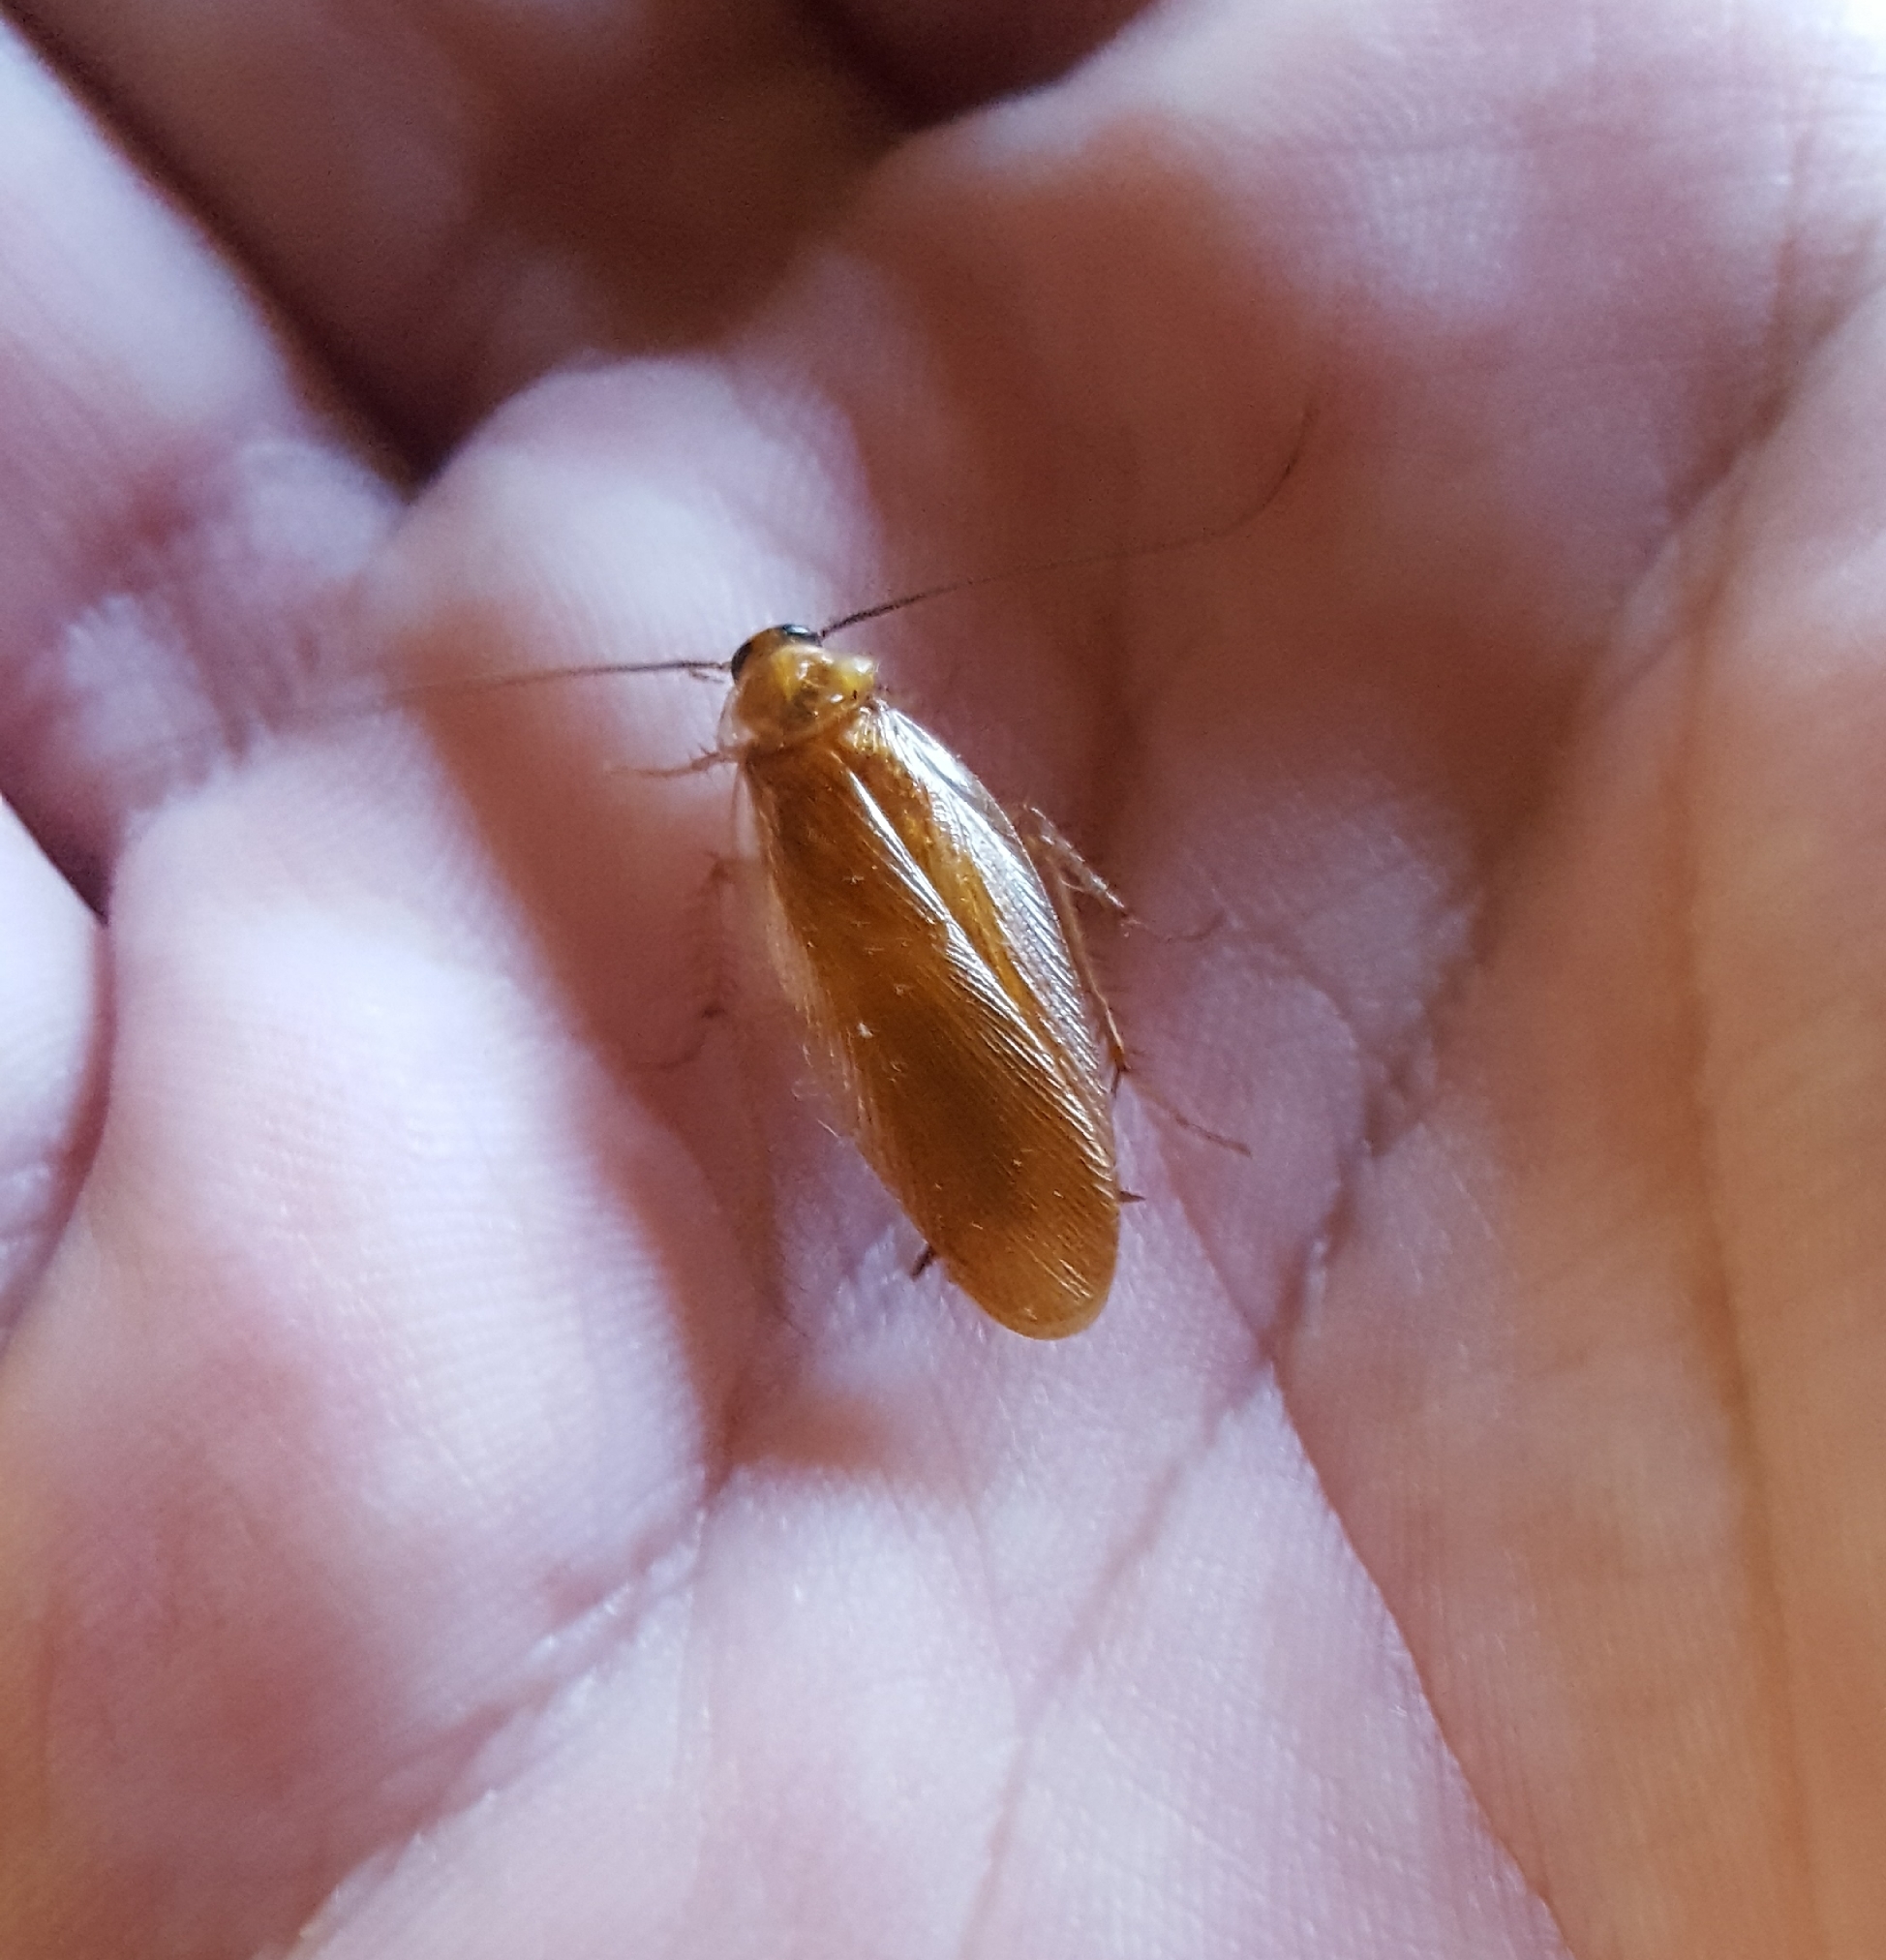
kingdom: Animalia
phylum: Arthropoda
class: Insecta
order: Blattodea
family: Ectobiidae
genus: Parcoblatta
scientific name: Parcoblatta virginica
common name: Virginia wood cockroach
